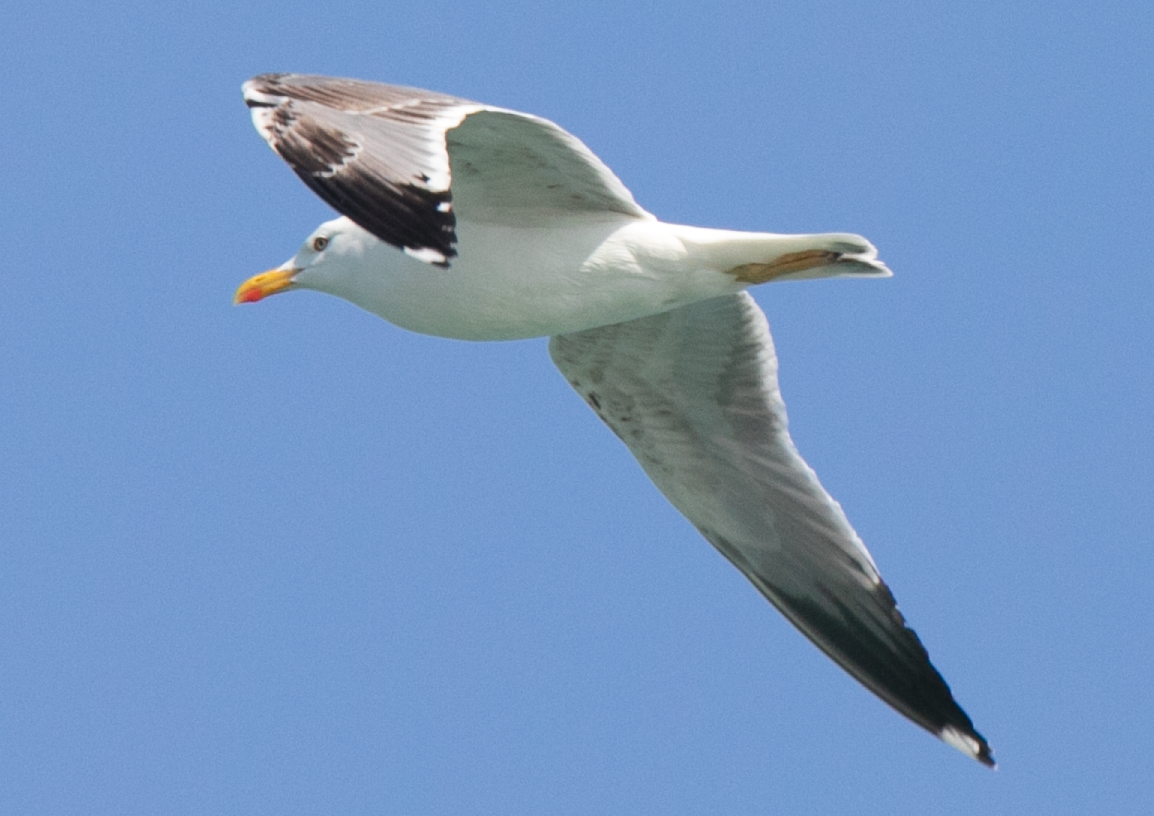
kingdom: Animalia
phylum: Chordata
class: Aves
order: Charadriiformes
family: Laridae
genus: Larus
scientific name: Larus michahellis
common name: Yellow-legged gull
